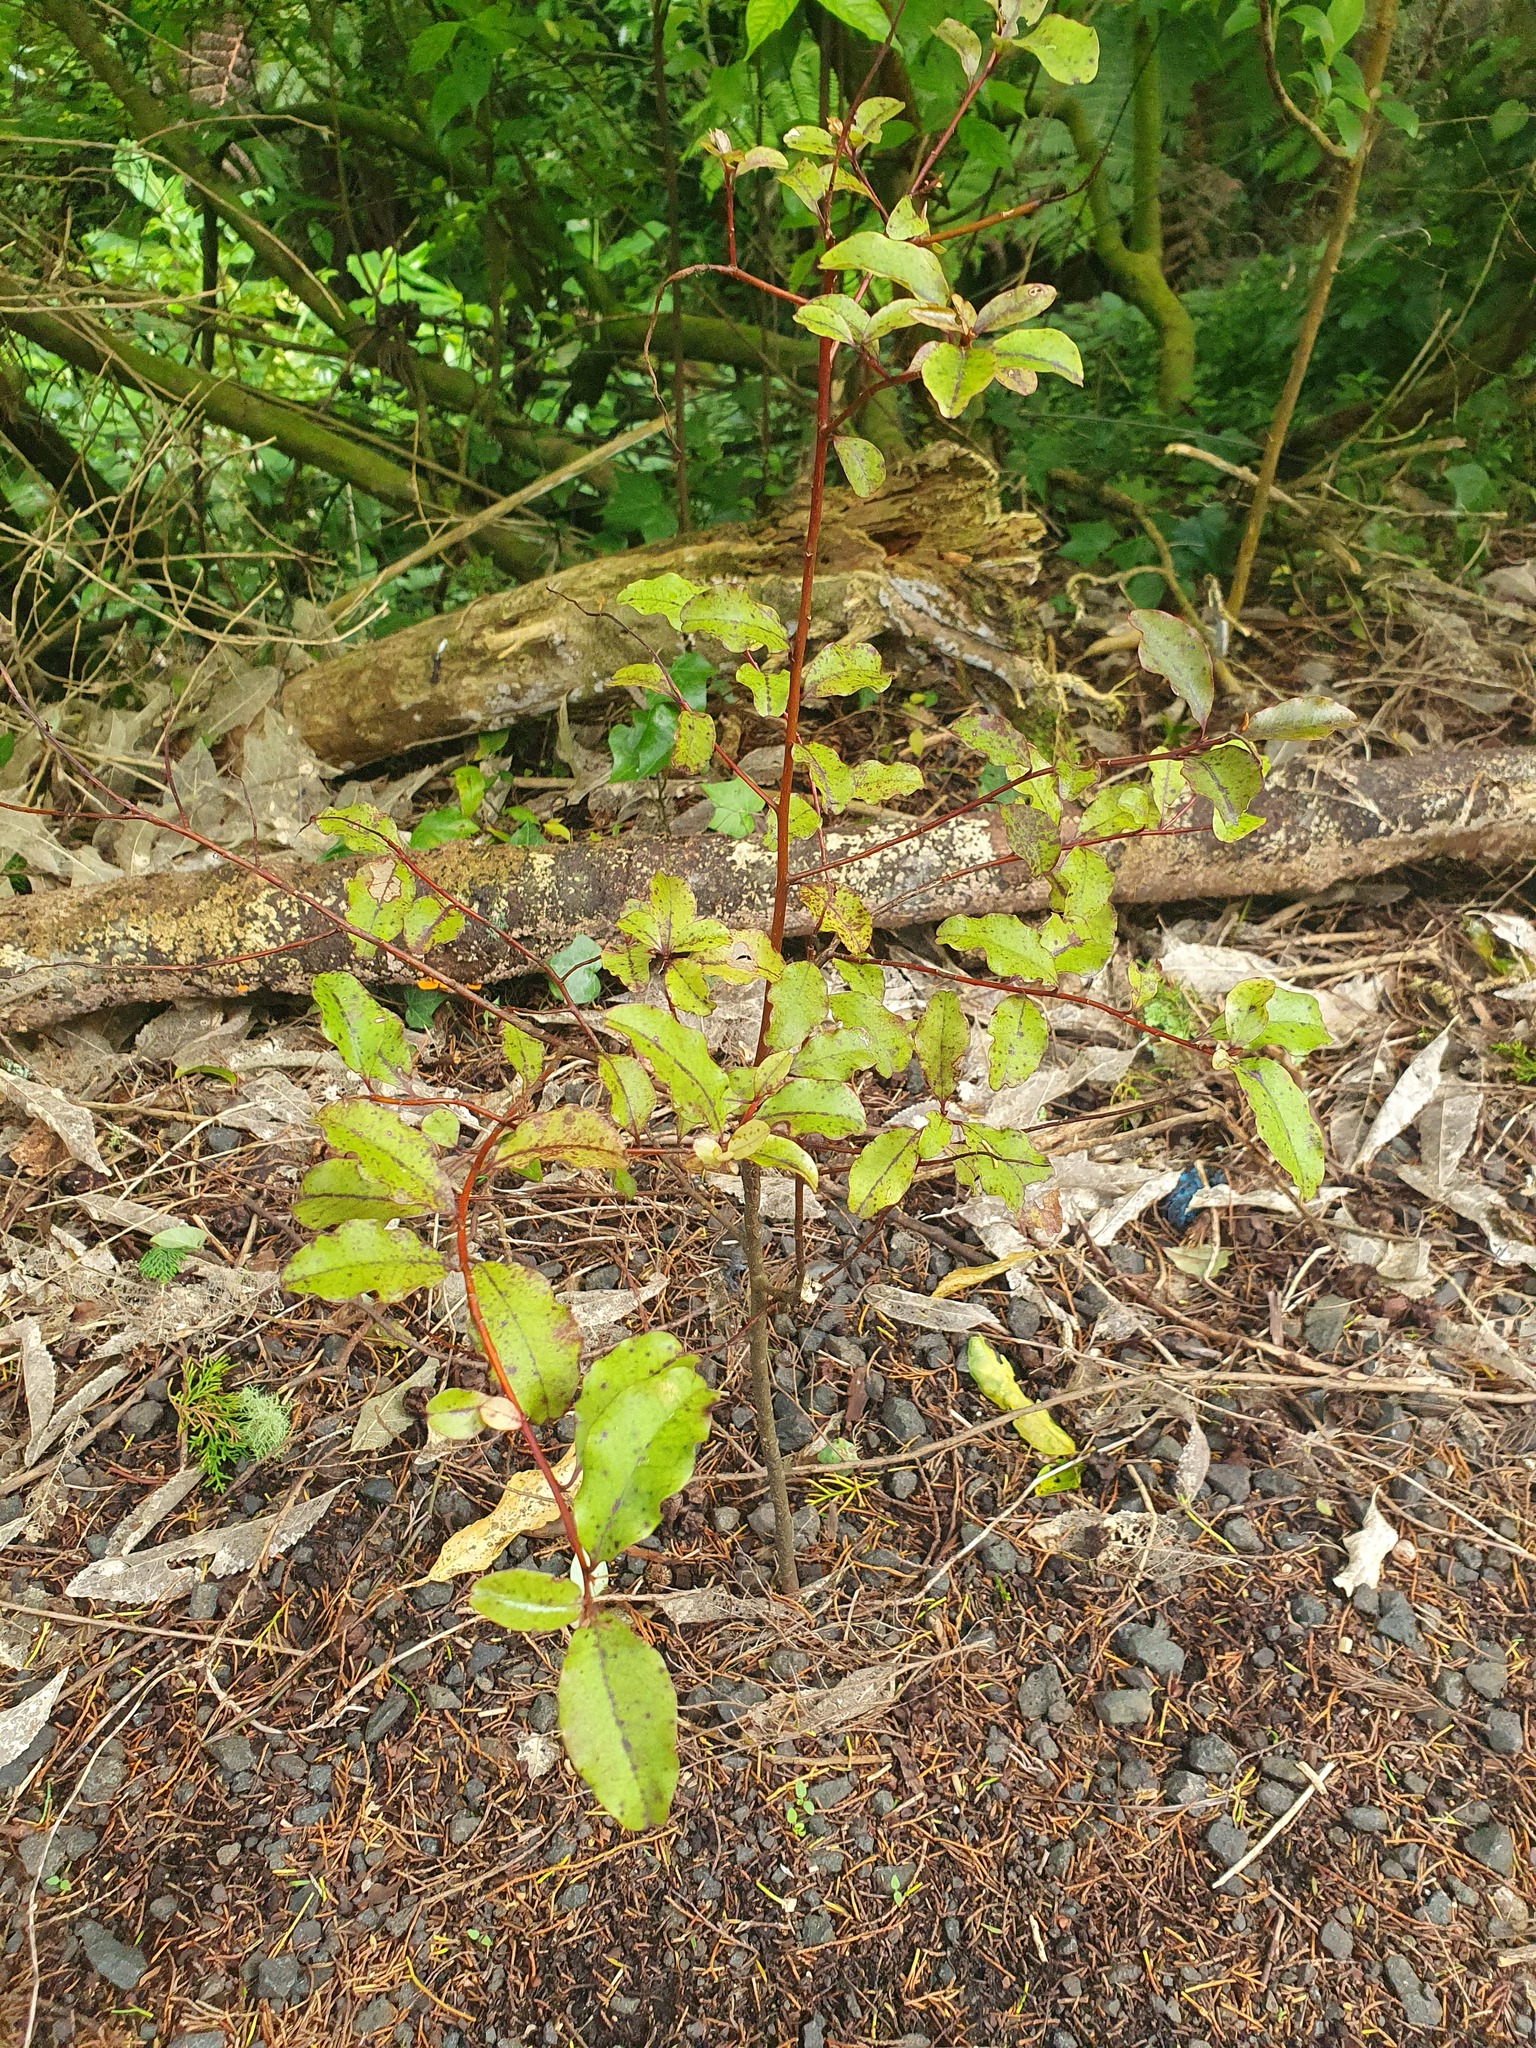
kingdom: Plantae
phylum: Tracheophyta
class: Magnoliopsida
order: Ericales
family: Primulaceae
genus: Myrsine
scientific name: Myrsine australis
